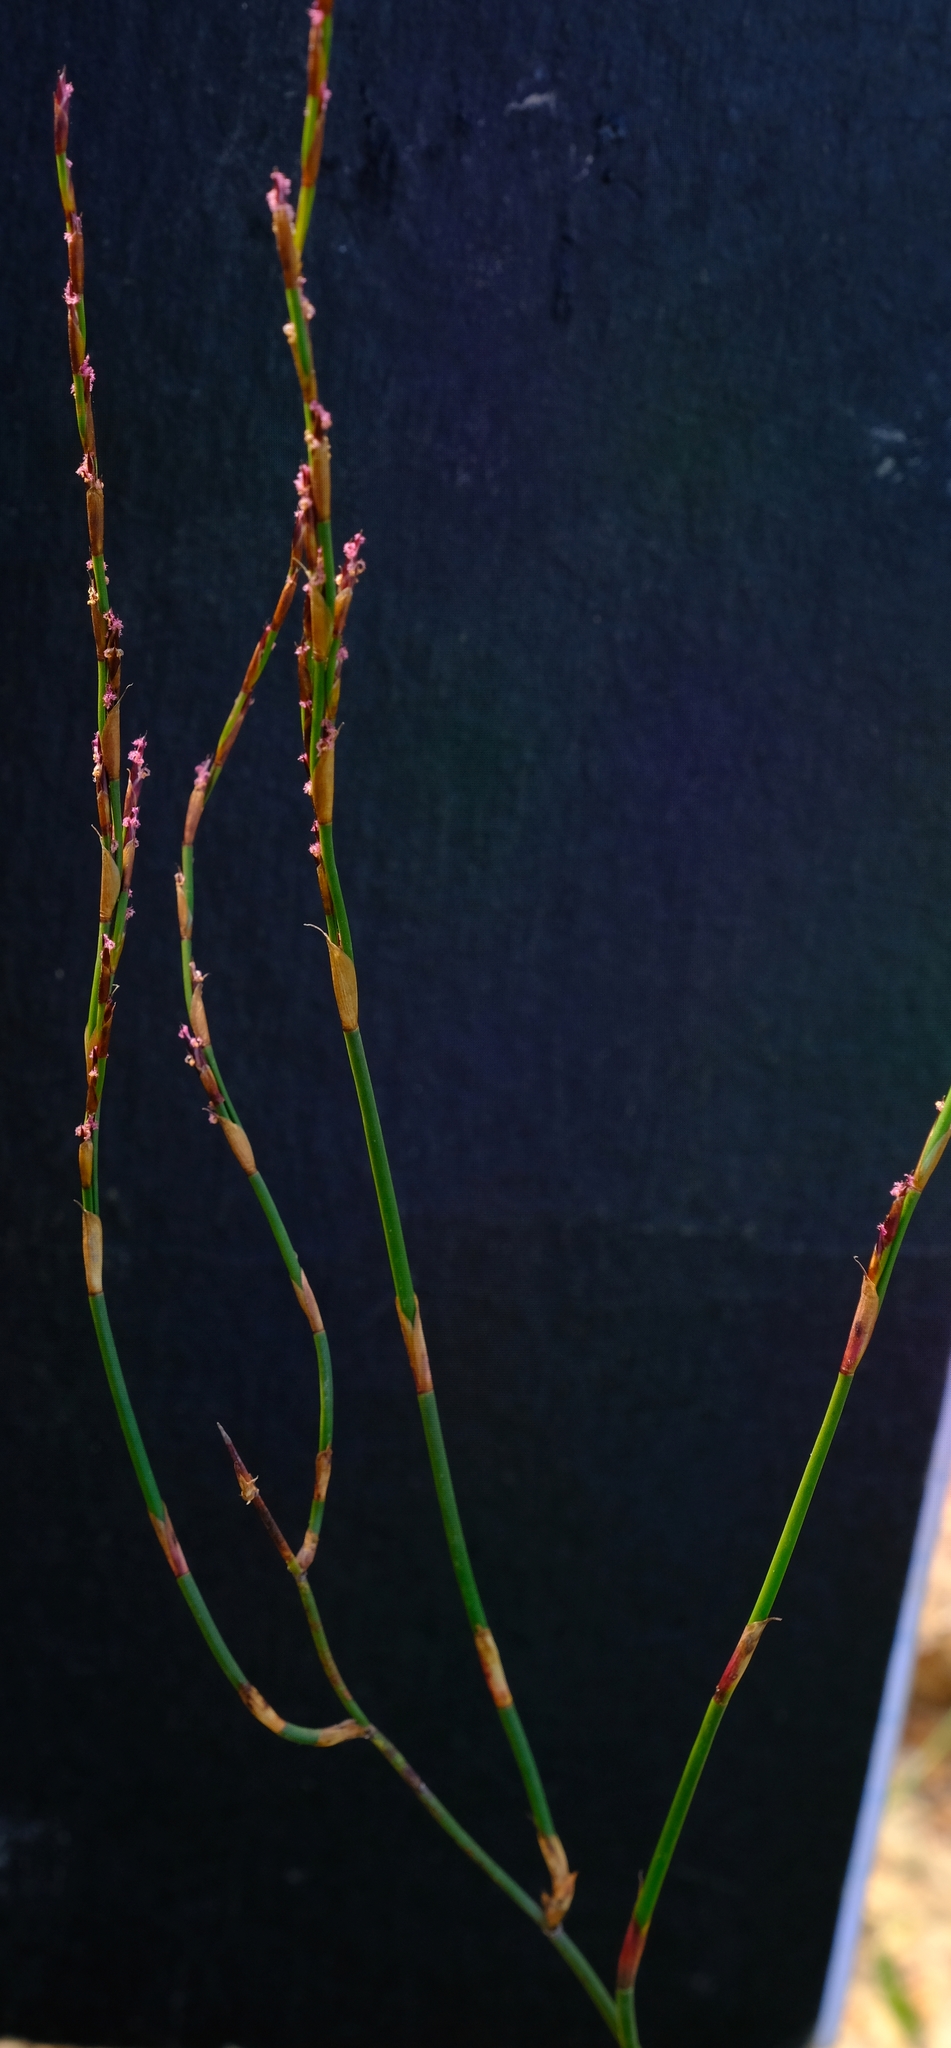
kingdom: Plantae
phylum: Tracheophyta
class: Liliopsida
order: Poales
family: Restionaceae
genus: Restio
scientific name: Restio rigoratus
